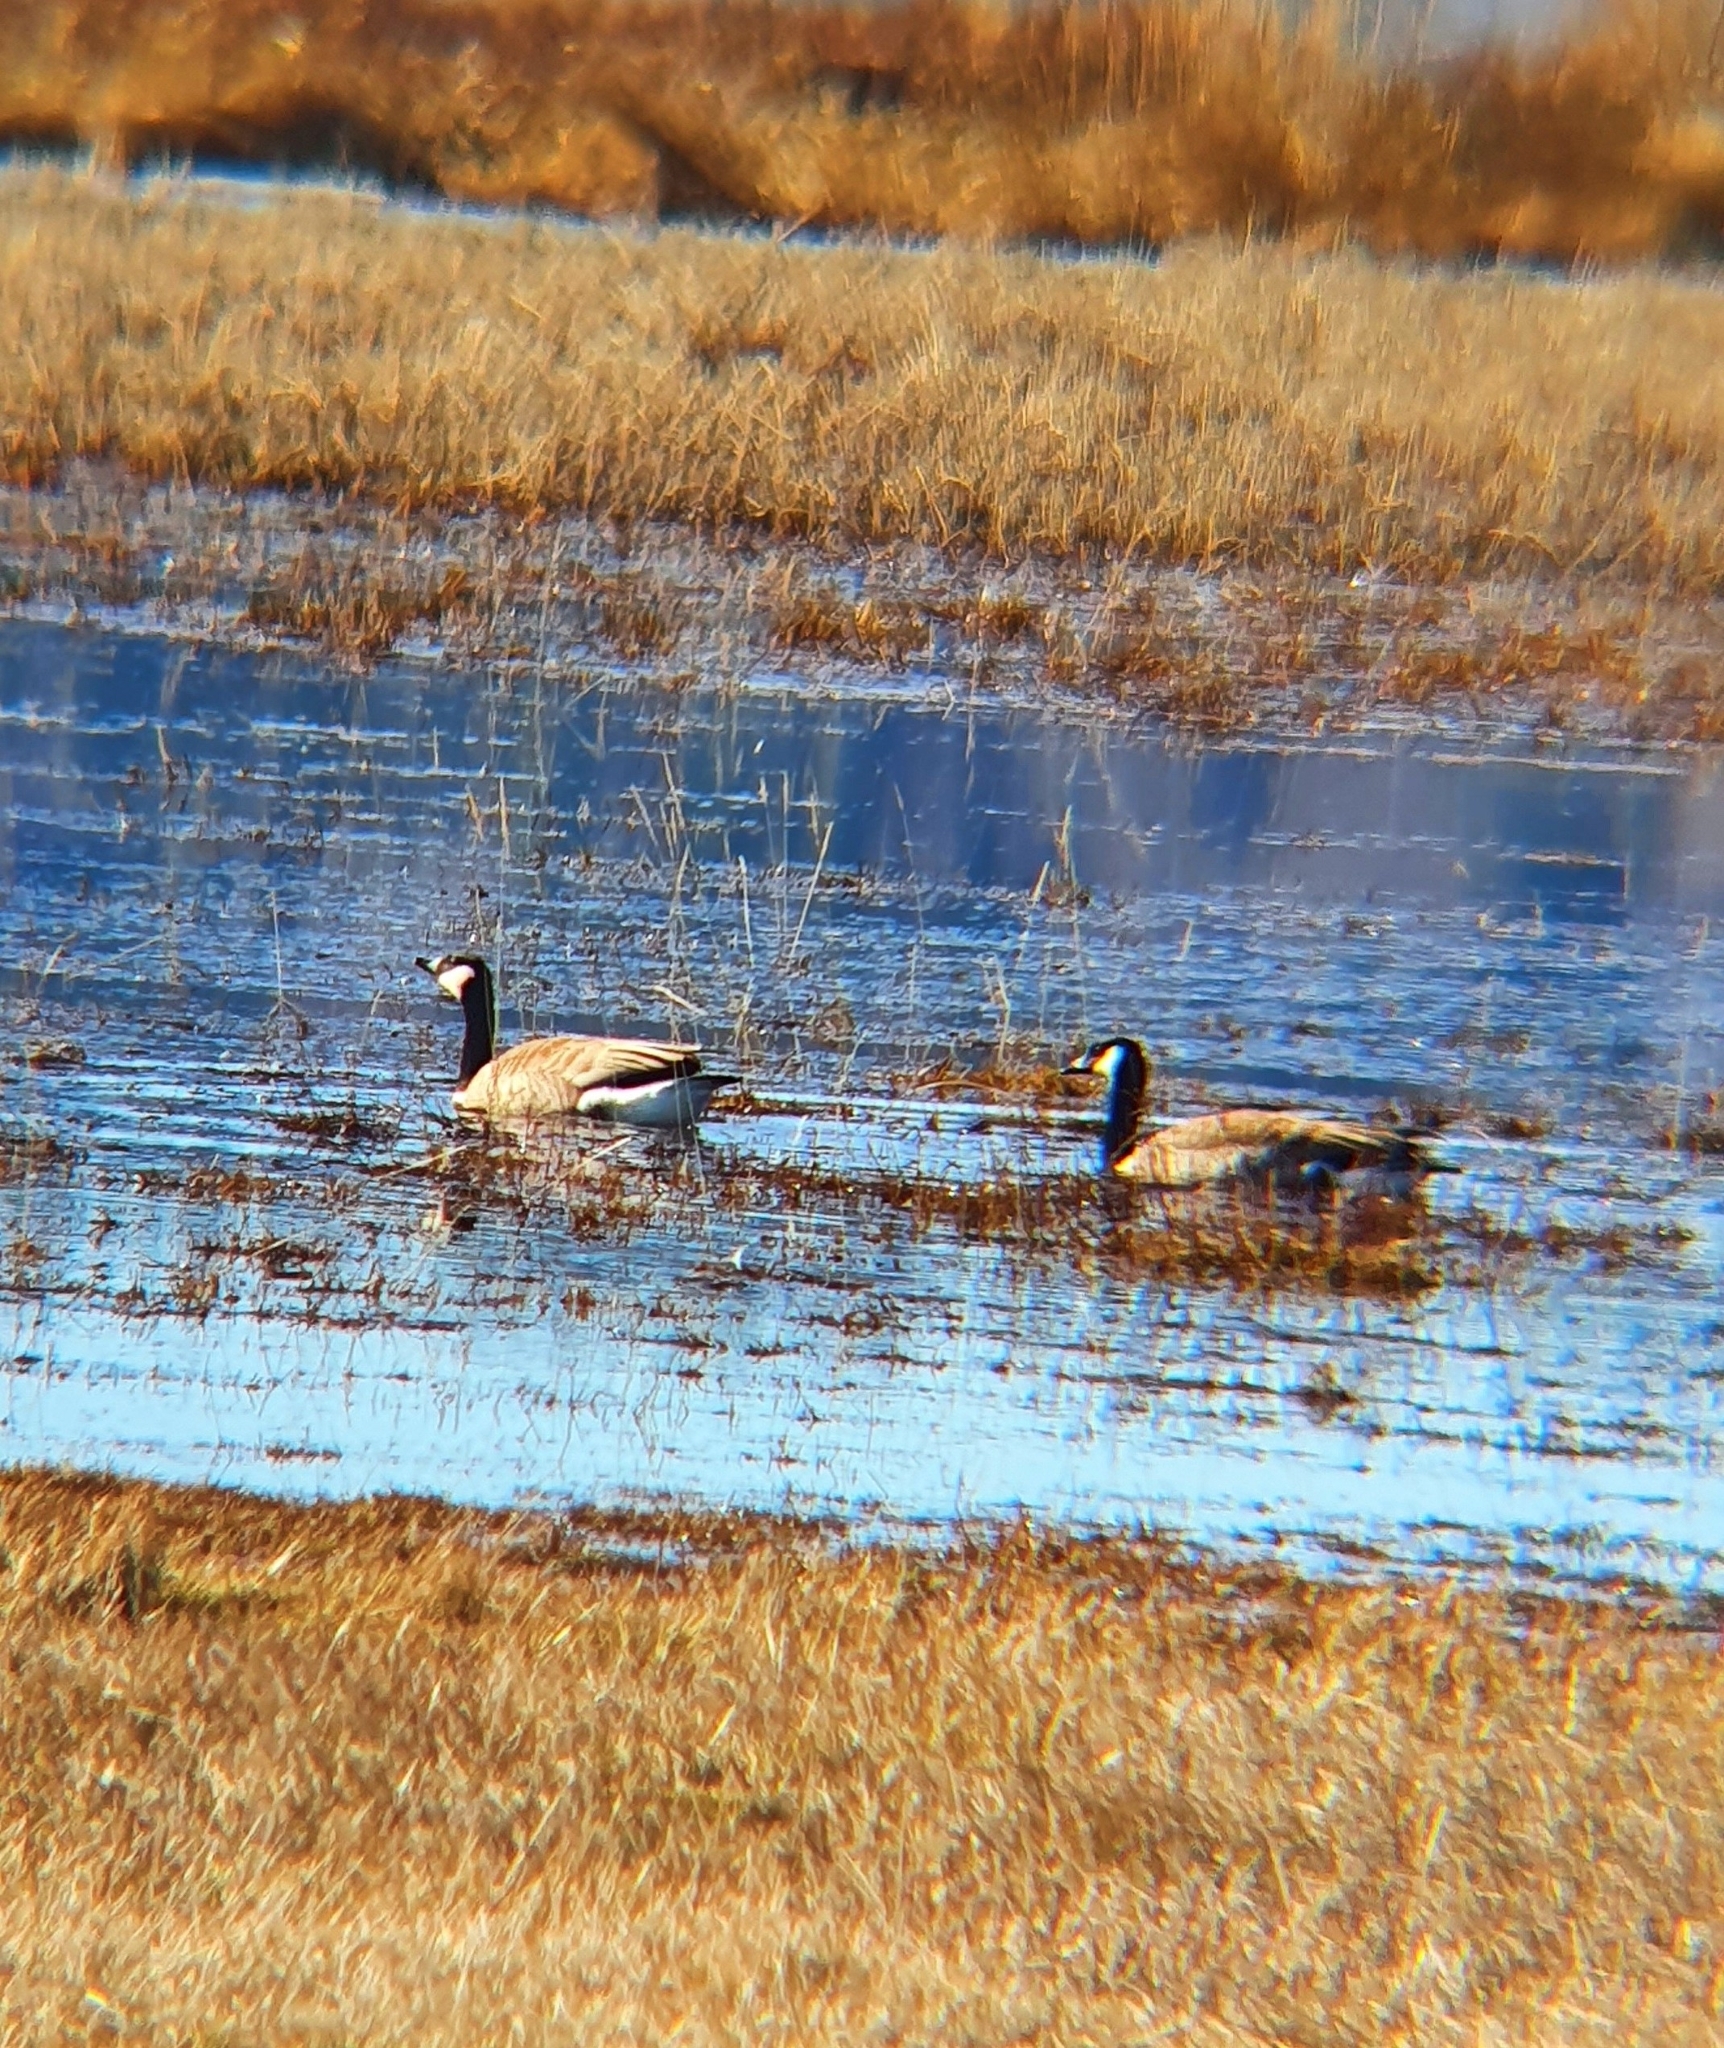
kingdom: Animalia
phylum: Chordata
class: Aves
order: Anseriformes
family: Anatidae
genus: Branta
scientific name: Branta canadensis
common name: Canada goose
